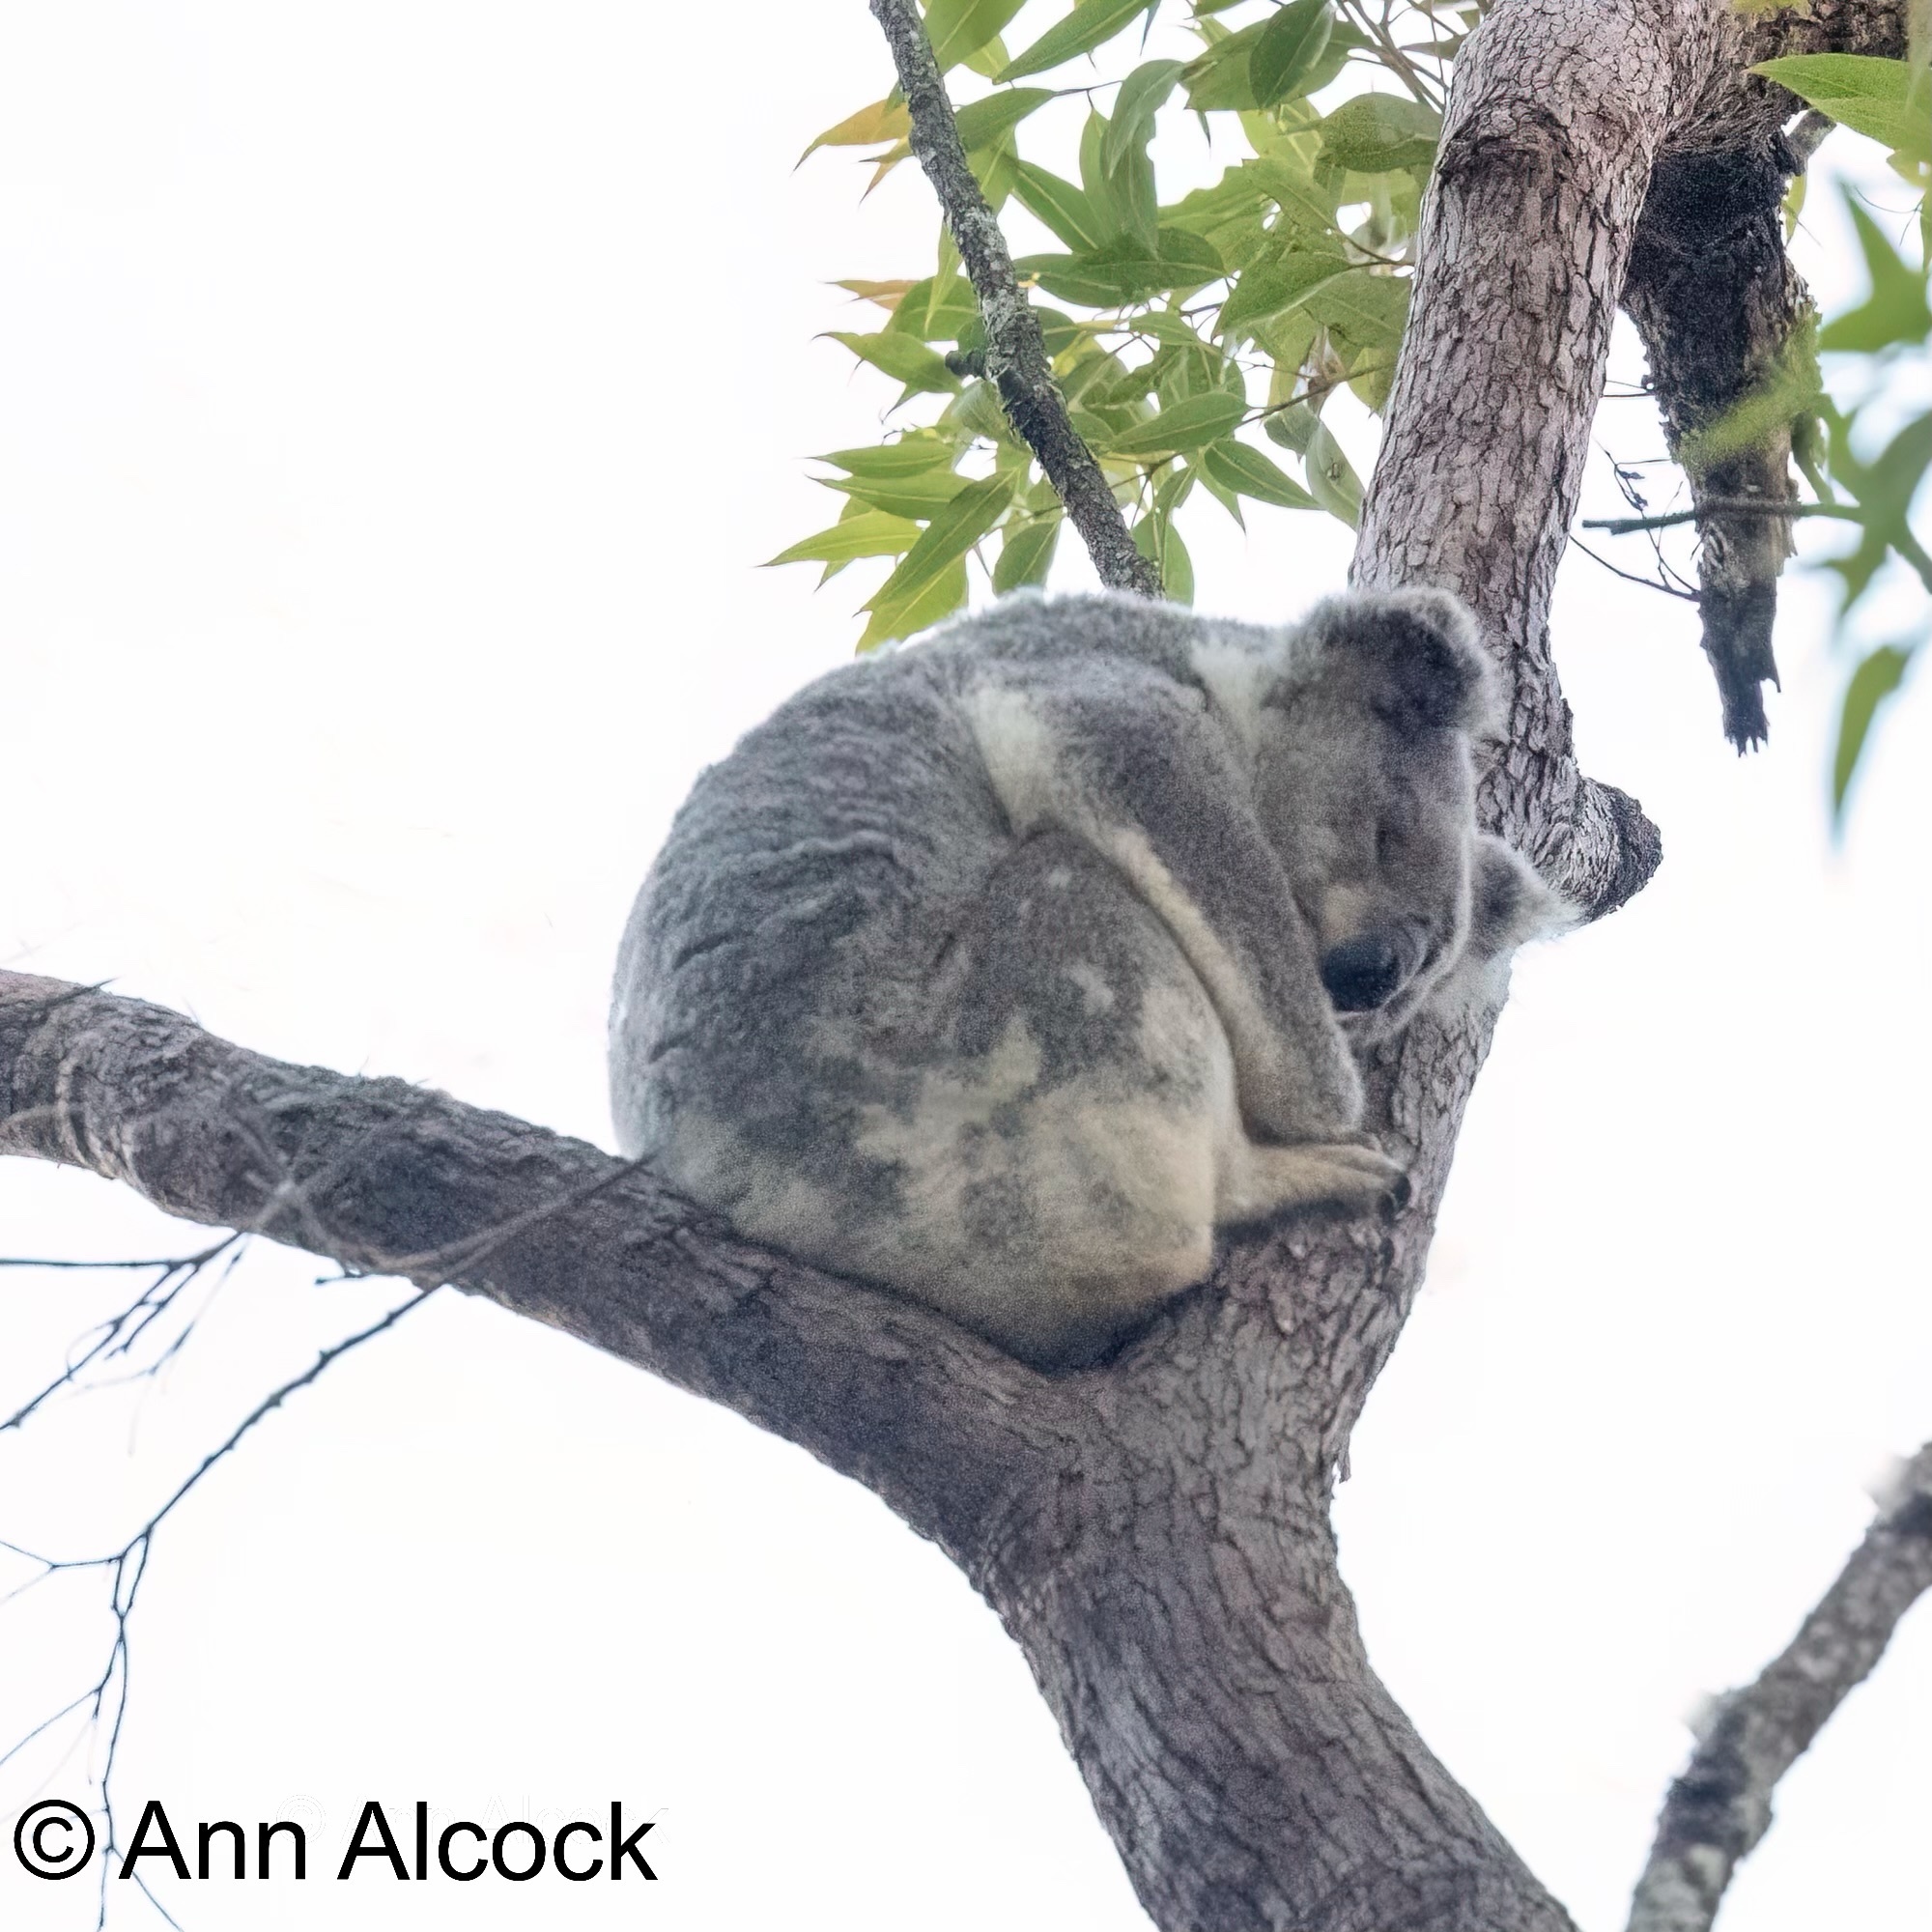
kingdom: Animalia
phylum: Chordata
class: Mammalia
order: Diprotodontia
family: Phascolarctidae
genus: Phascolarctos
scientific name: Phascolarctos cinereus
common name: Koala
